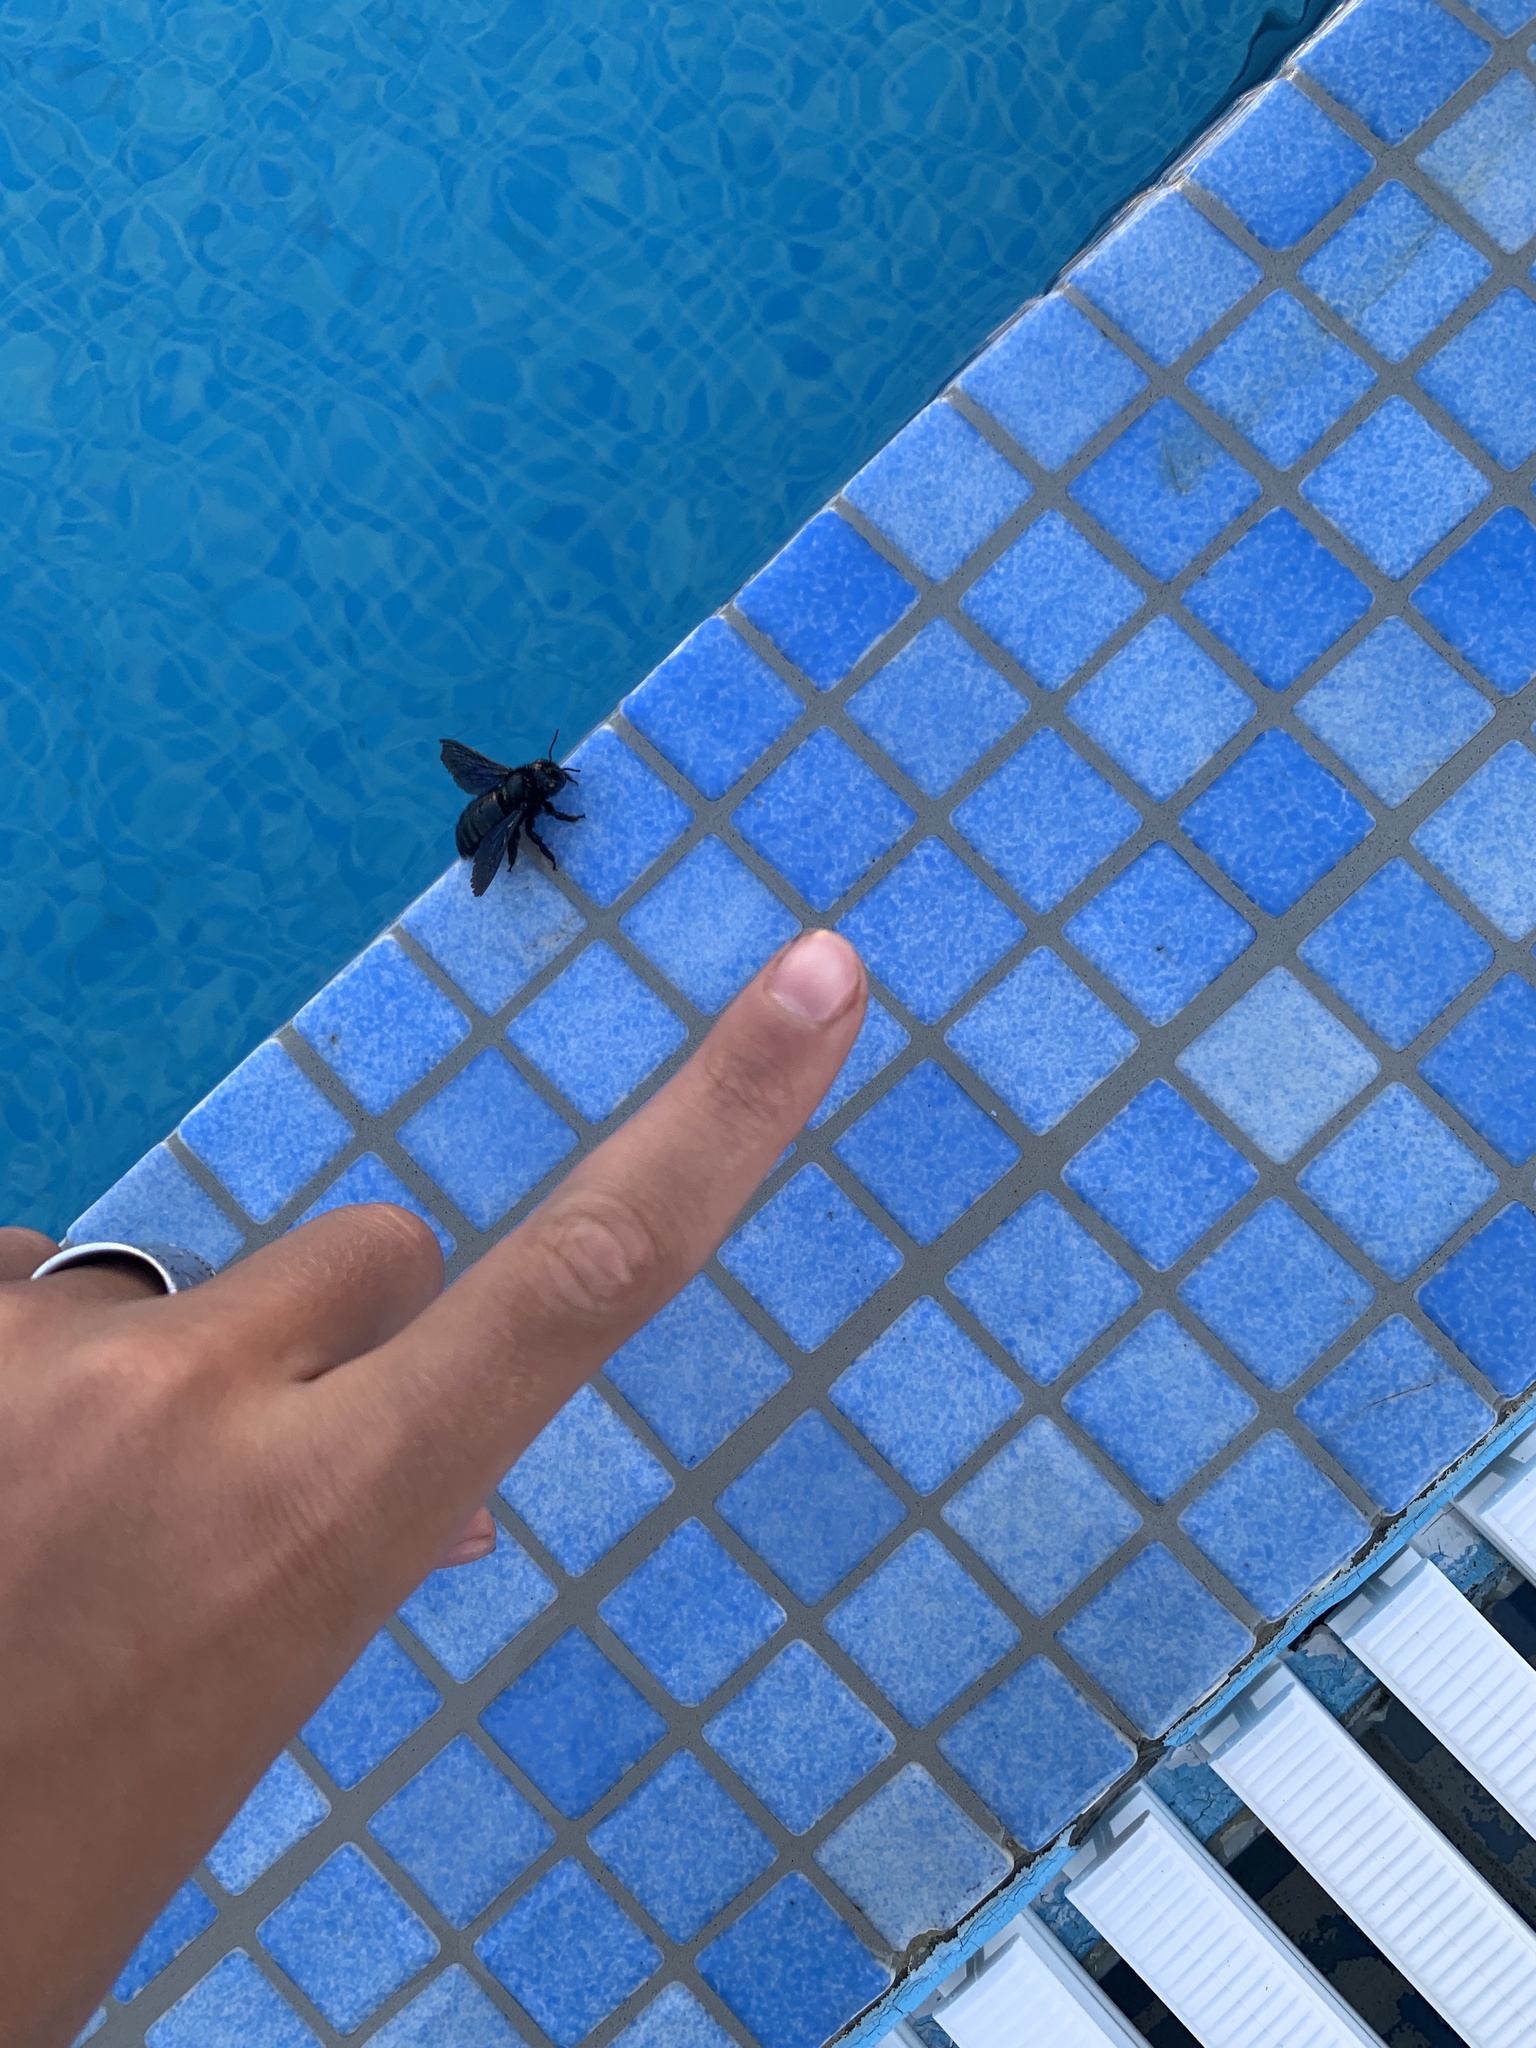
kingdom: Animalia
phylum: Arthropoda
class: Insecta
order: Hymenoptera
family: Apidae
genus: Xylocopa
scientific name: Xylocopa violacea
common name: Violet carpenter bee
